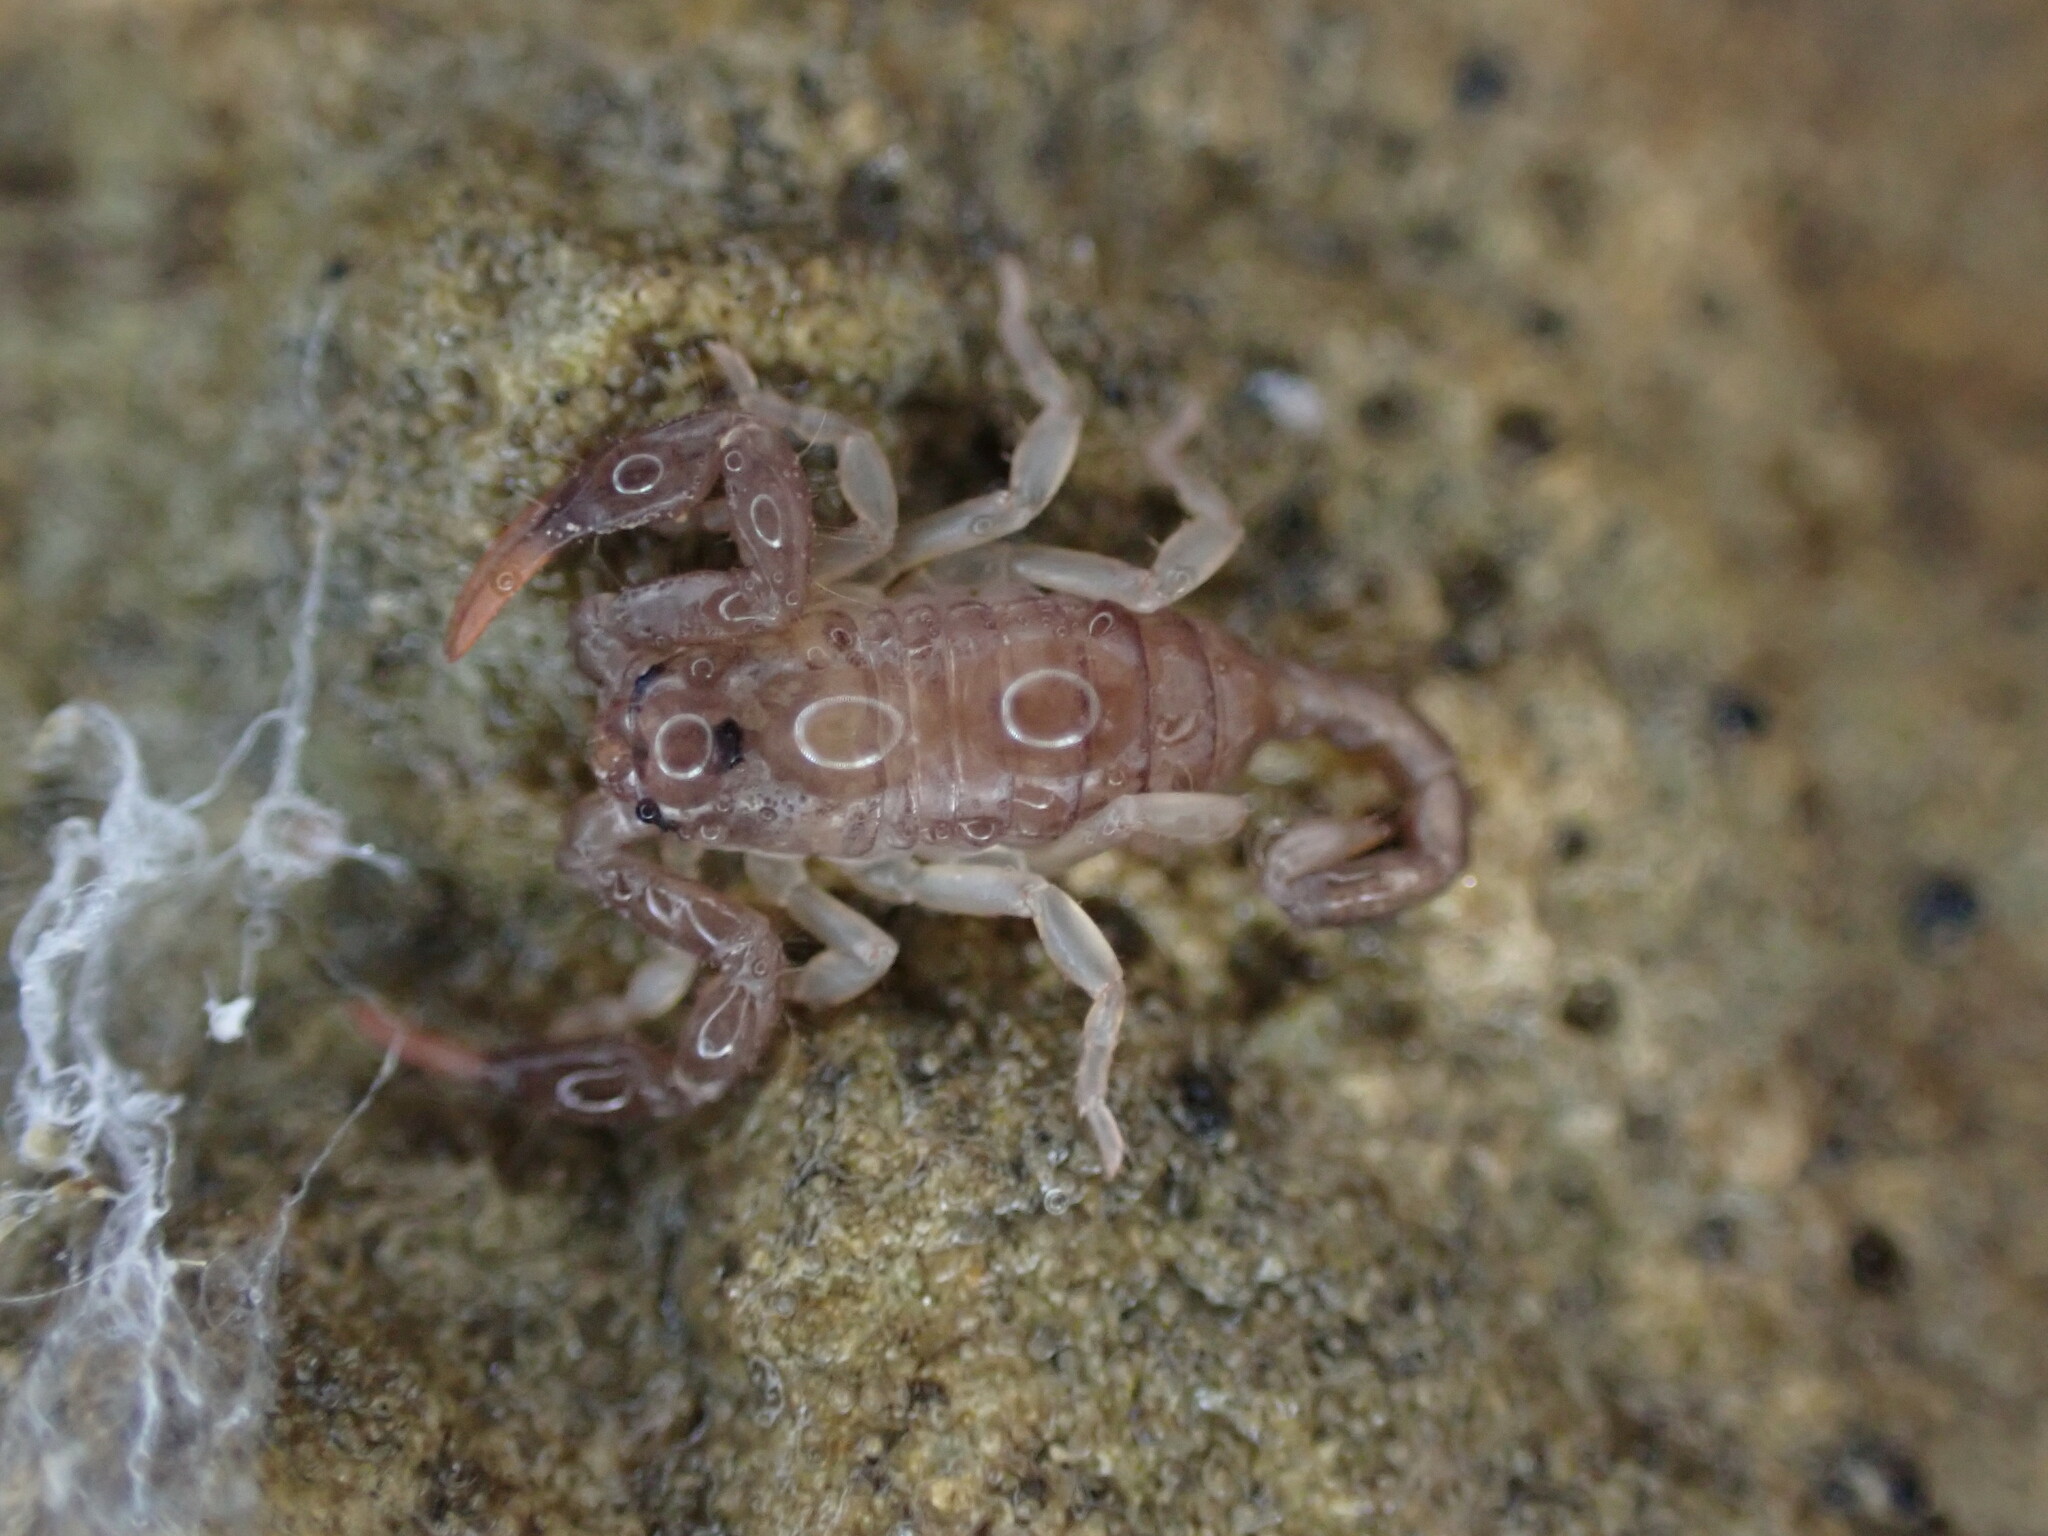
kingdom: Animalia
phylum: Arthropoda
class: Arachnida
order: Scorpiones
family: Euscorpiidae
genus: Euscorpius
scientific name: Euscorpius
